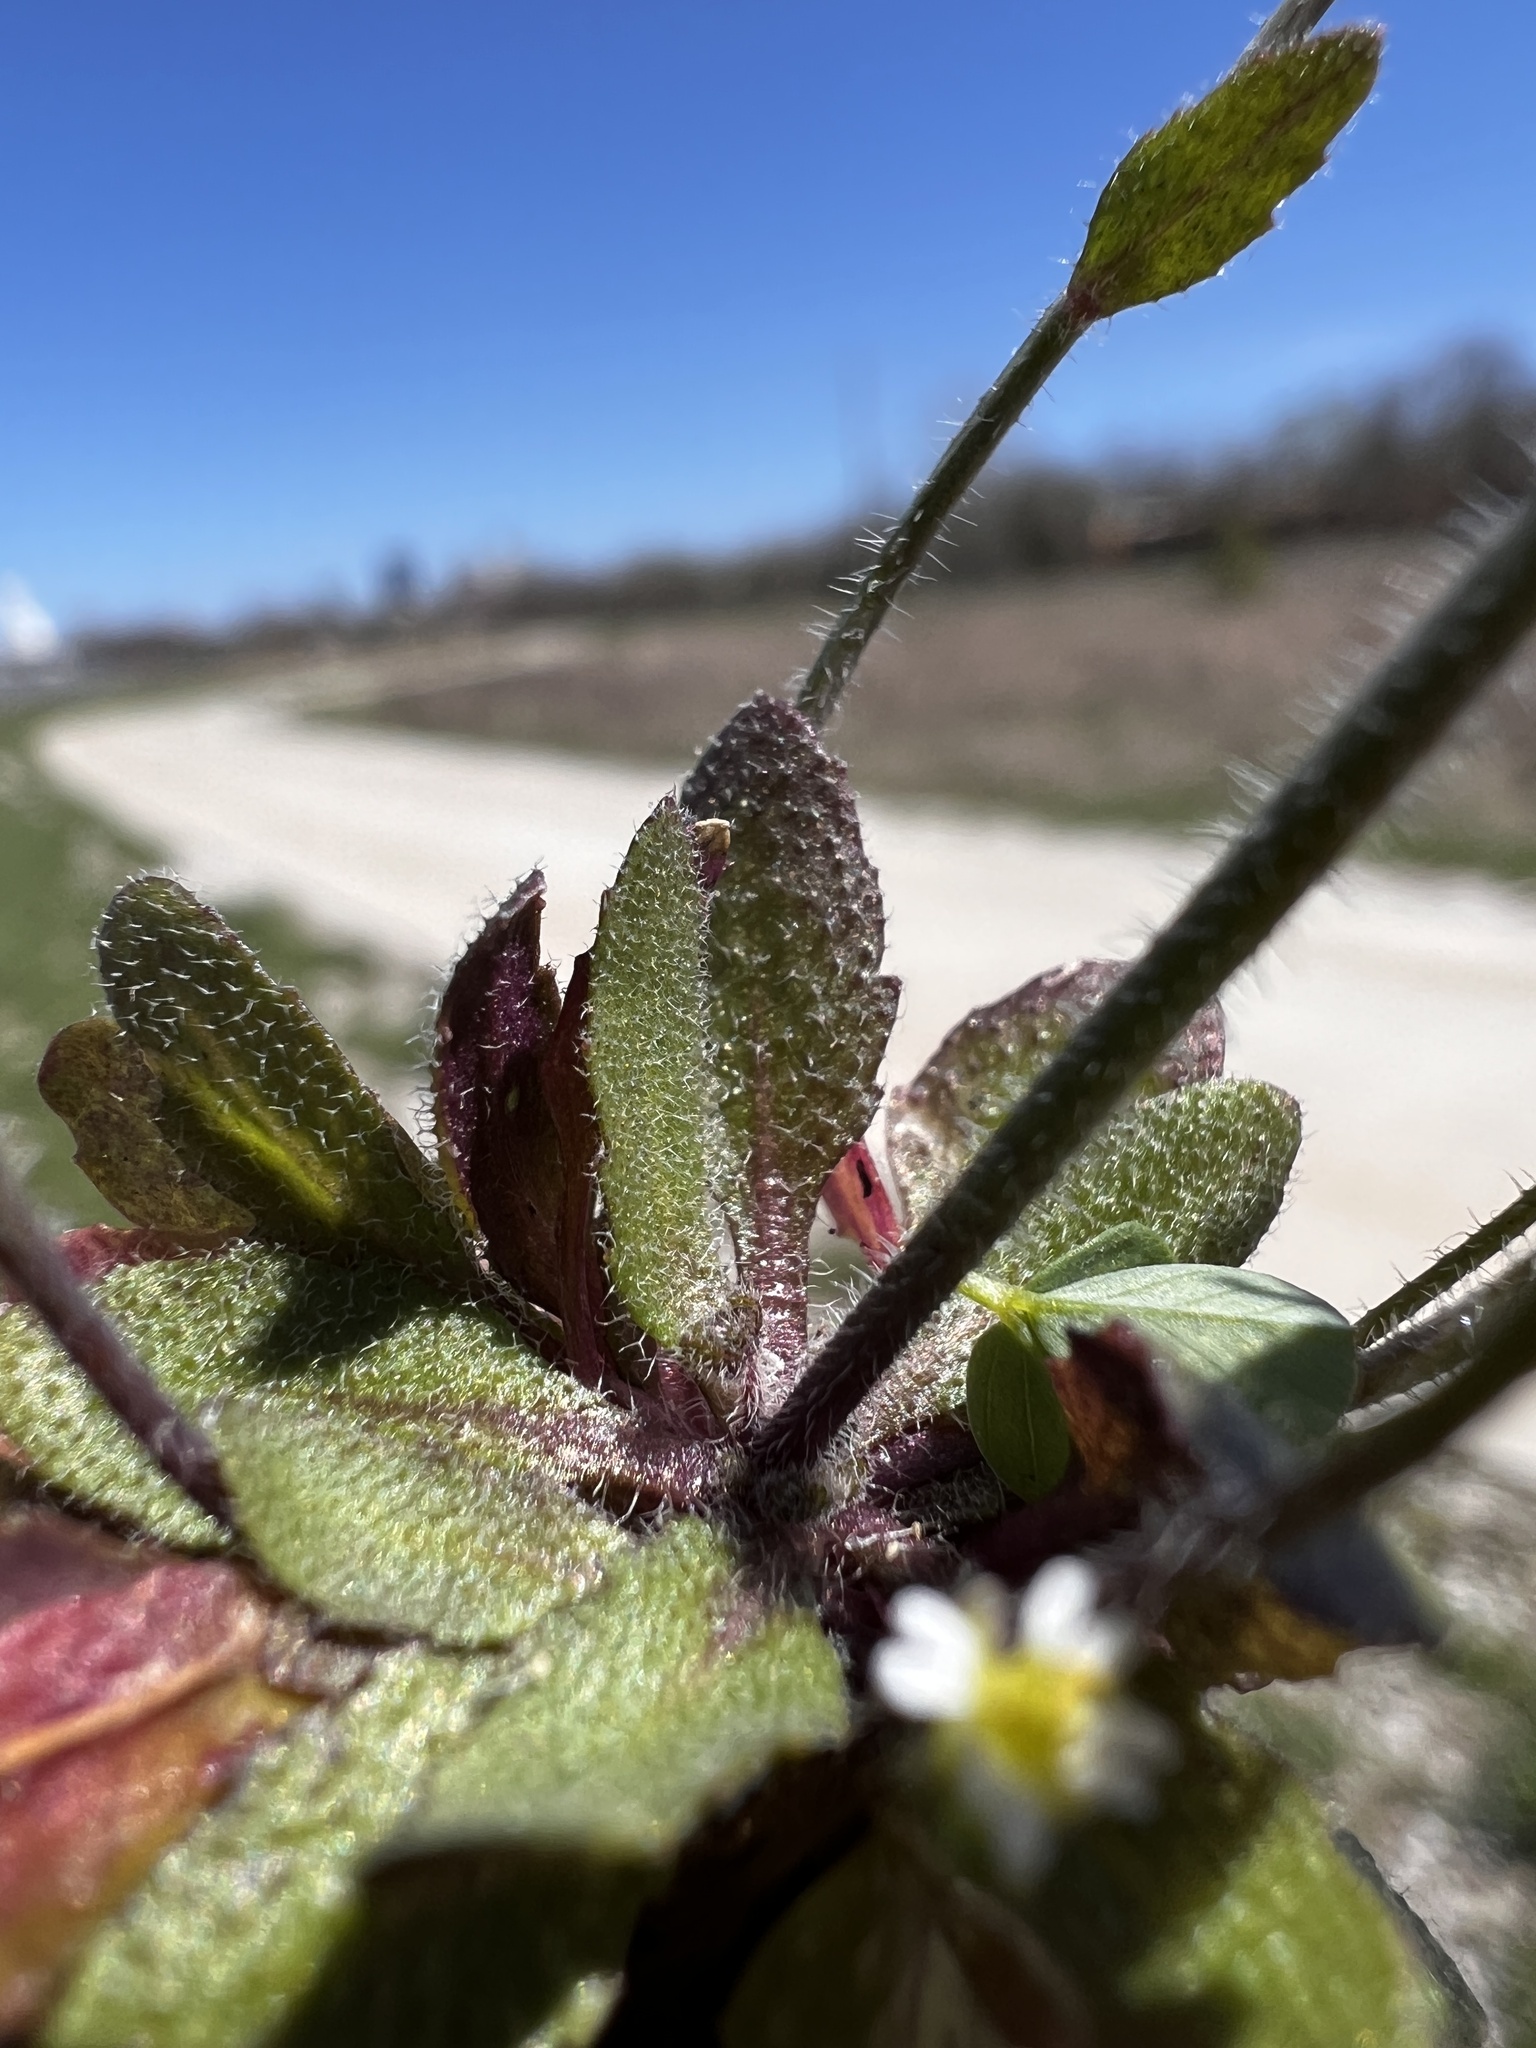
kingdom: Plantae
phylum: Tracheophyta
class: Magnoliopsida
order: Brassicales
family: Brassicaceae
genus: Arabidopsis
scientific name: Arabidopsis thaliana
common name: Thale cress
